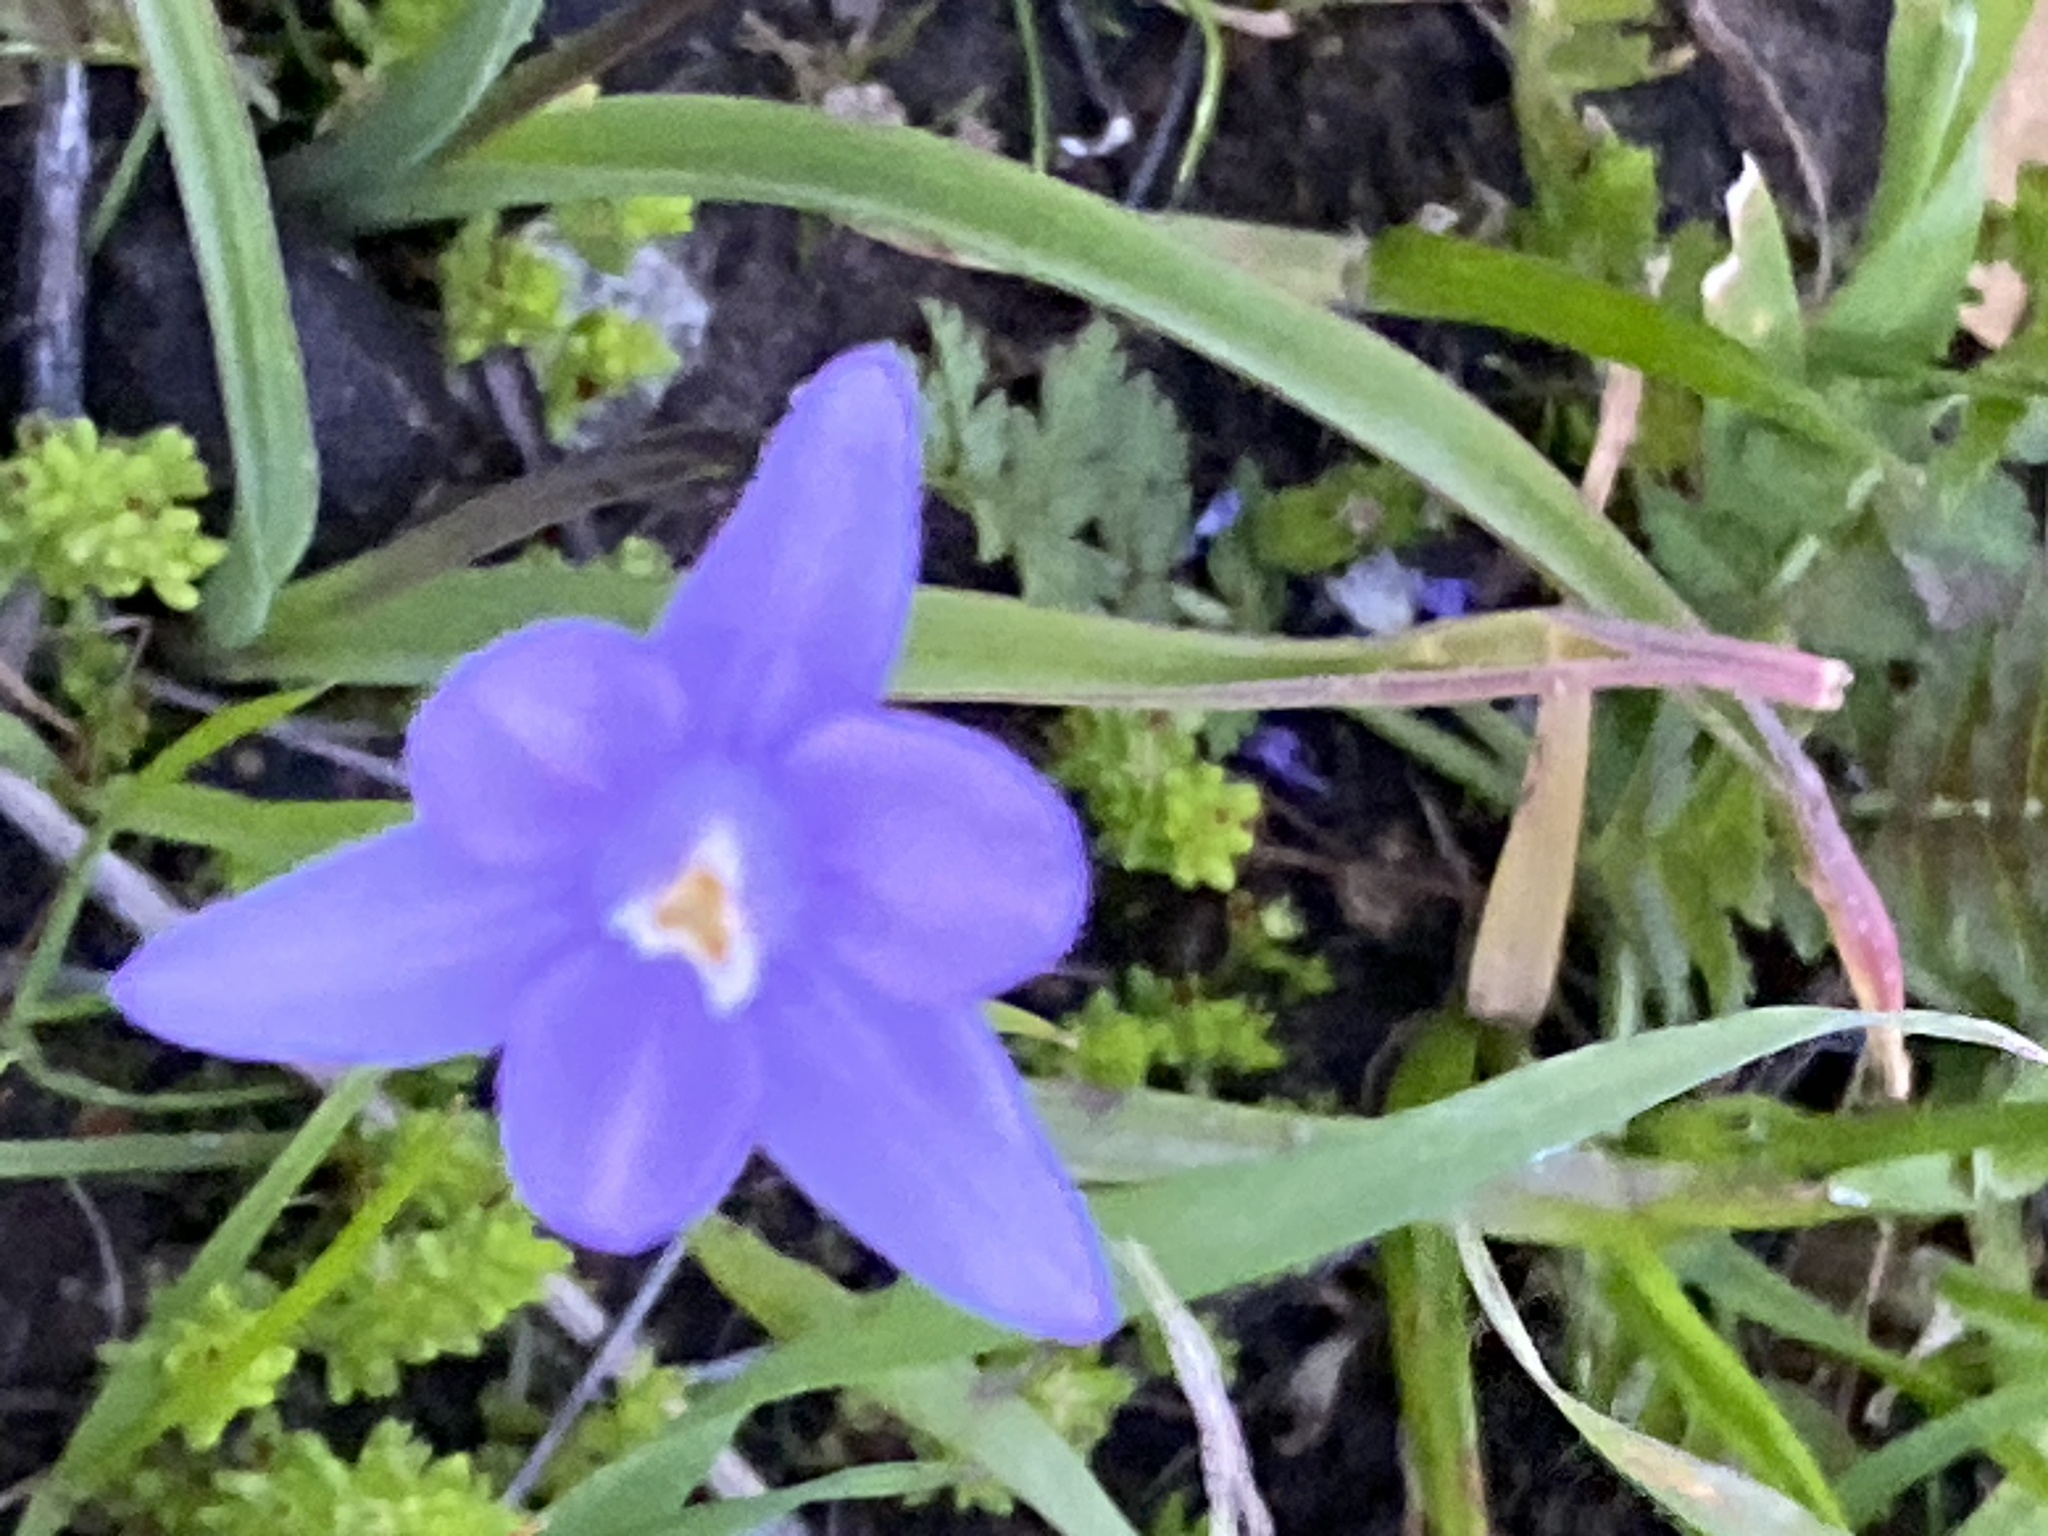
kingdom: Plantae
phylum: Tracheophyta
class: Liliopsida
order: Asparagales
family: Asparagaceae
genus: Dipterostemon
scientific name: Dipterostemon capitatus
